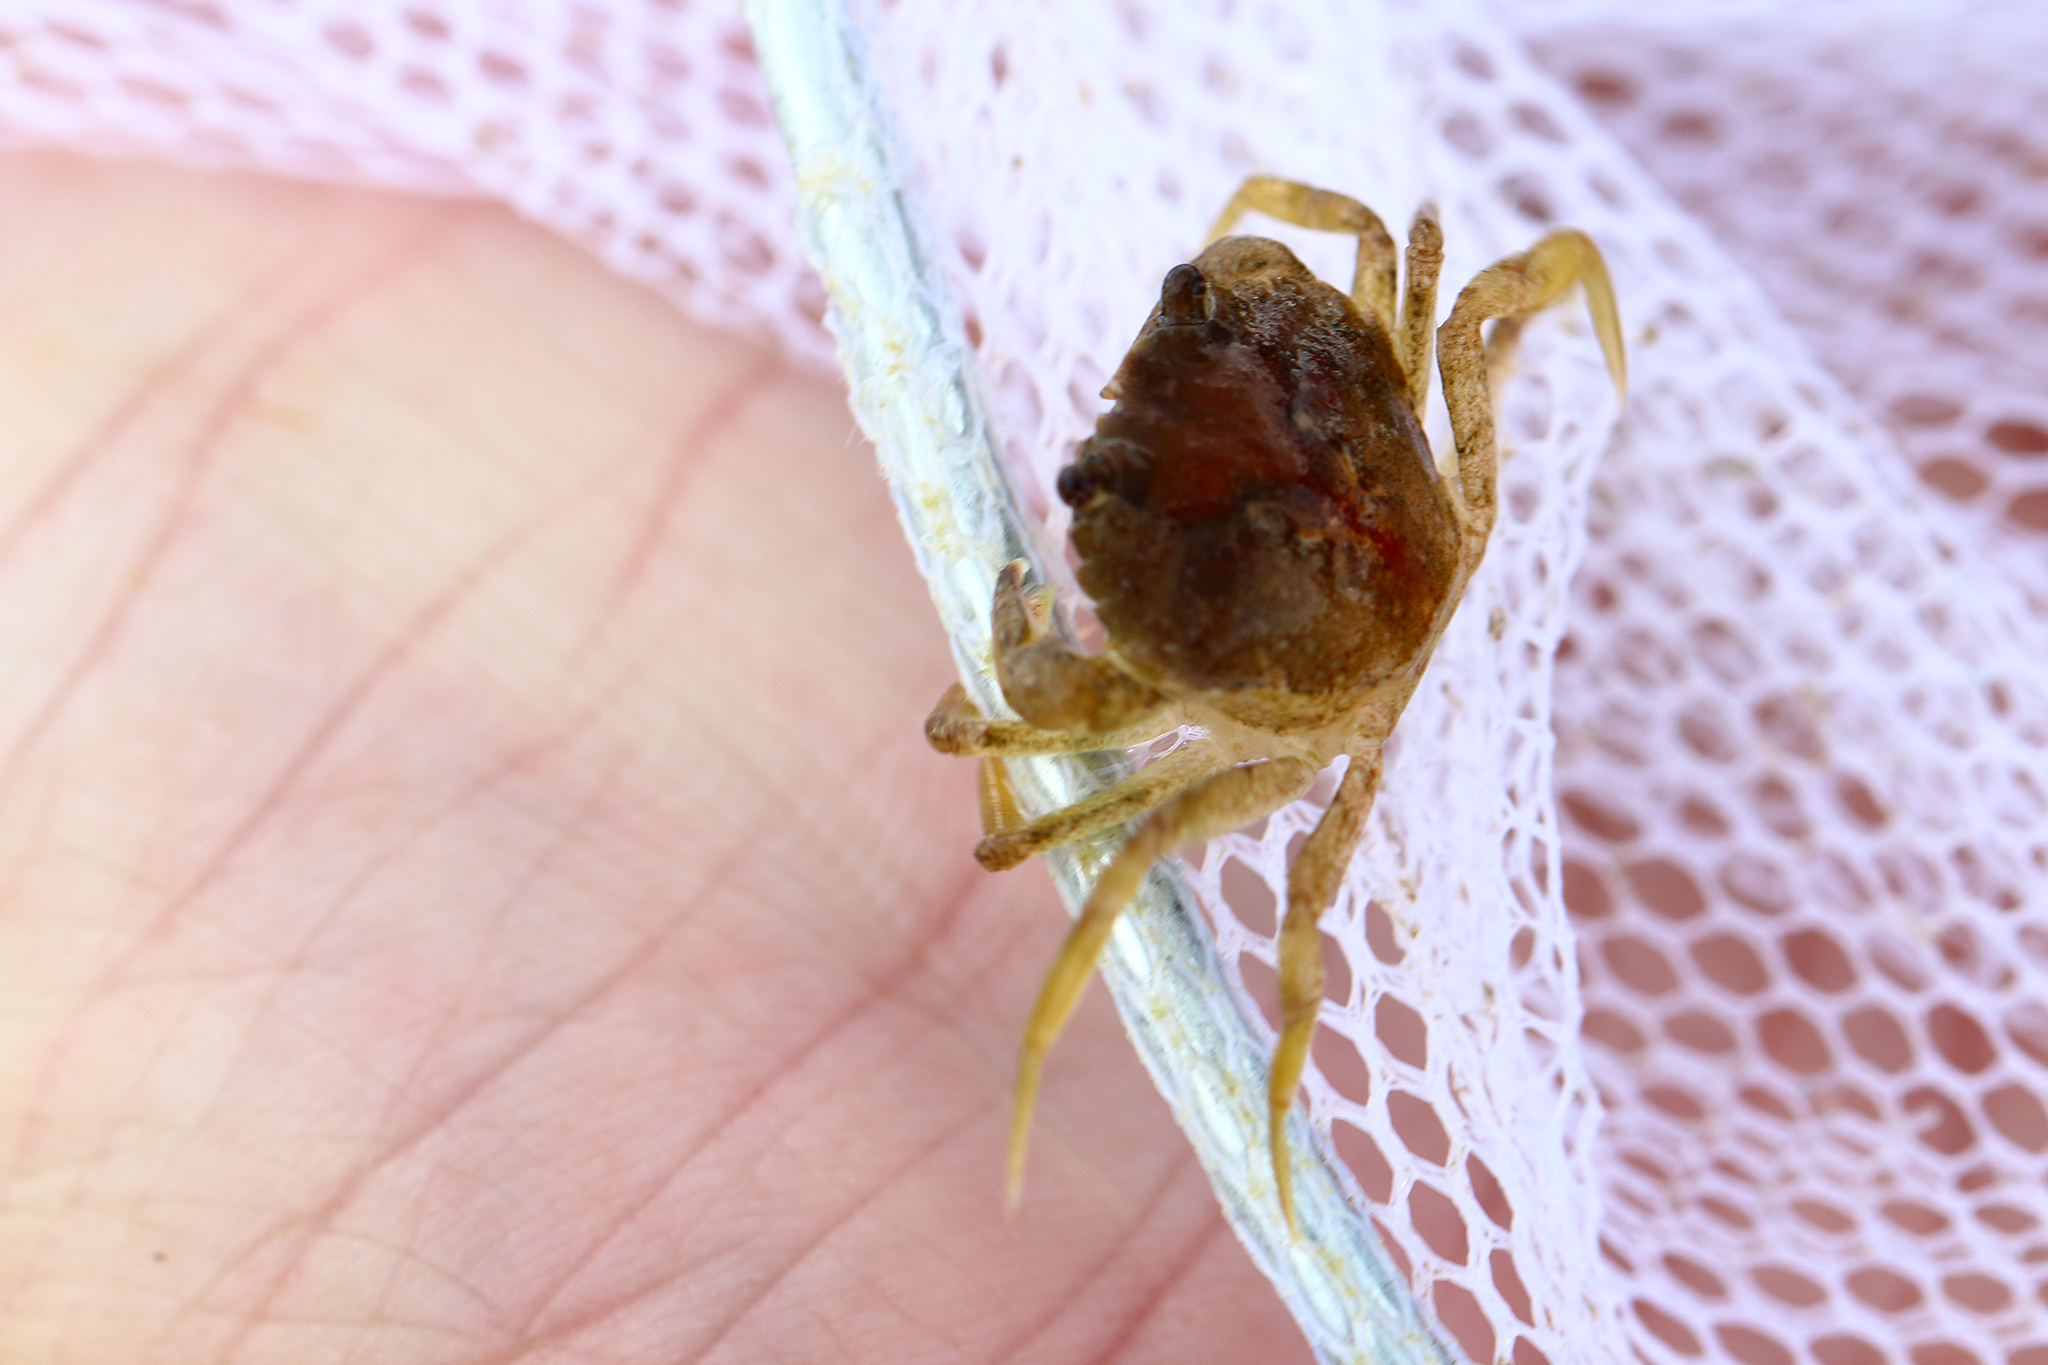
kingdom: Animalia
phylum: Arthropoda
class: Malacostraca
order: Decapoda
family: Carcinidae
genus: Carcinus
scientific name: Carcinus maenas
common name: European green crab
